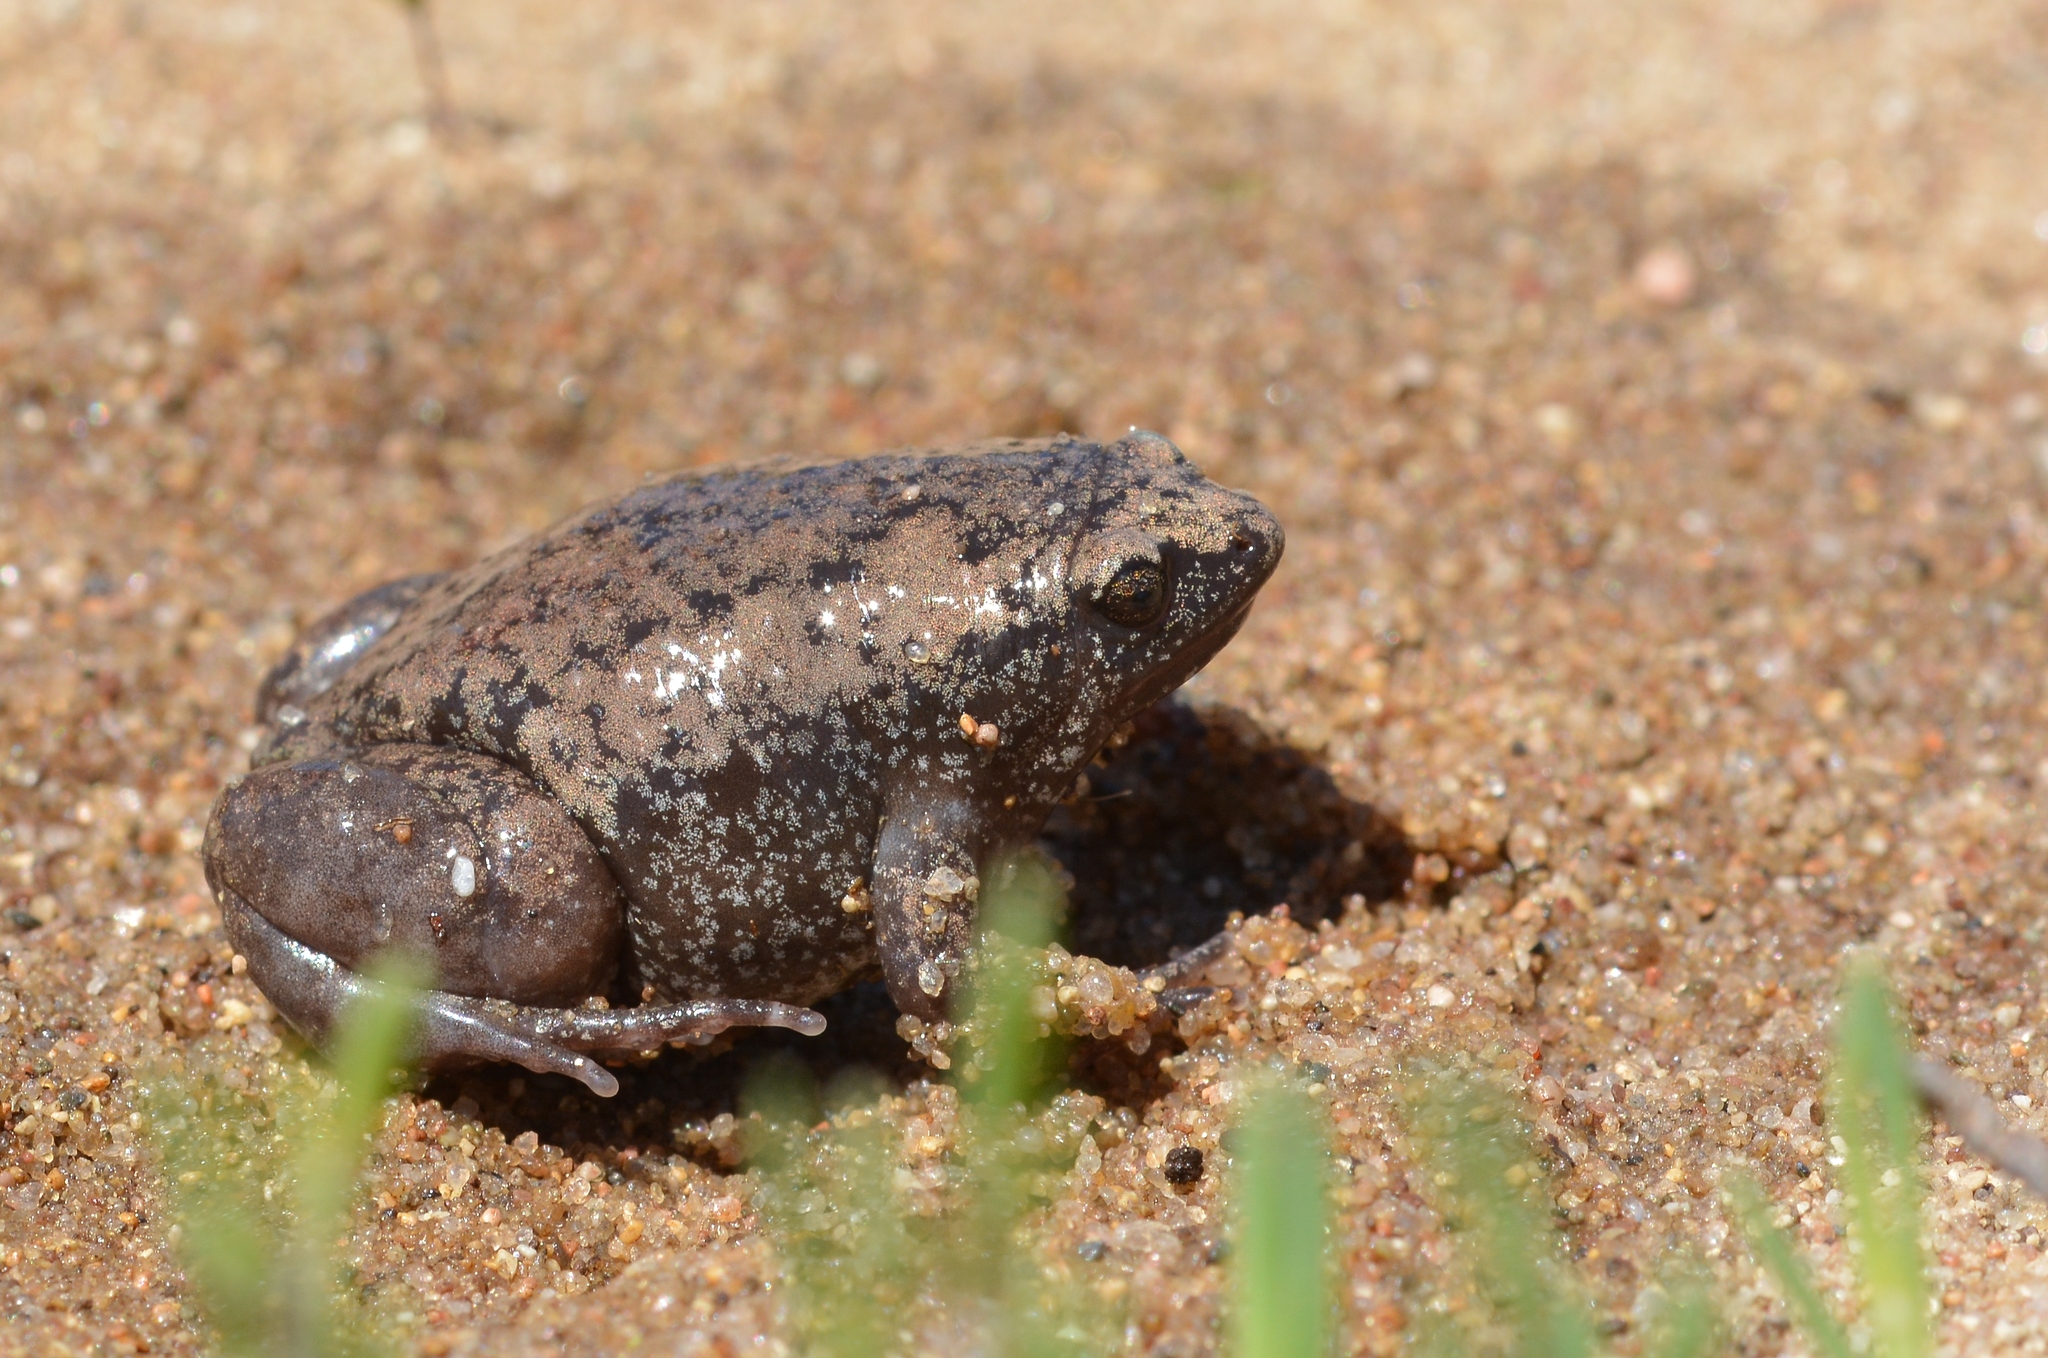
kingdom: Animalia
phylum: Chordata
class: Amphibia
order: Anura
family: Microhylidae
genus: Gastrophryne
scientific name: Gastrophryne carolinensis
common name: Eastern narrowmouth toad
